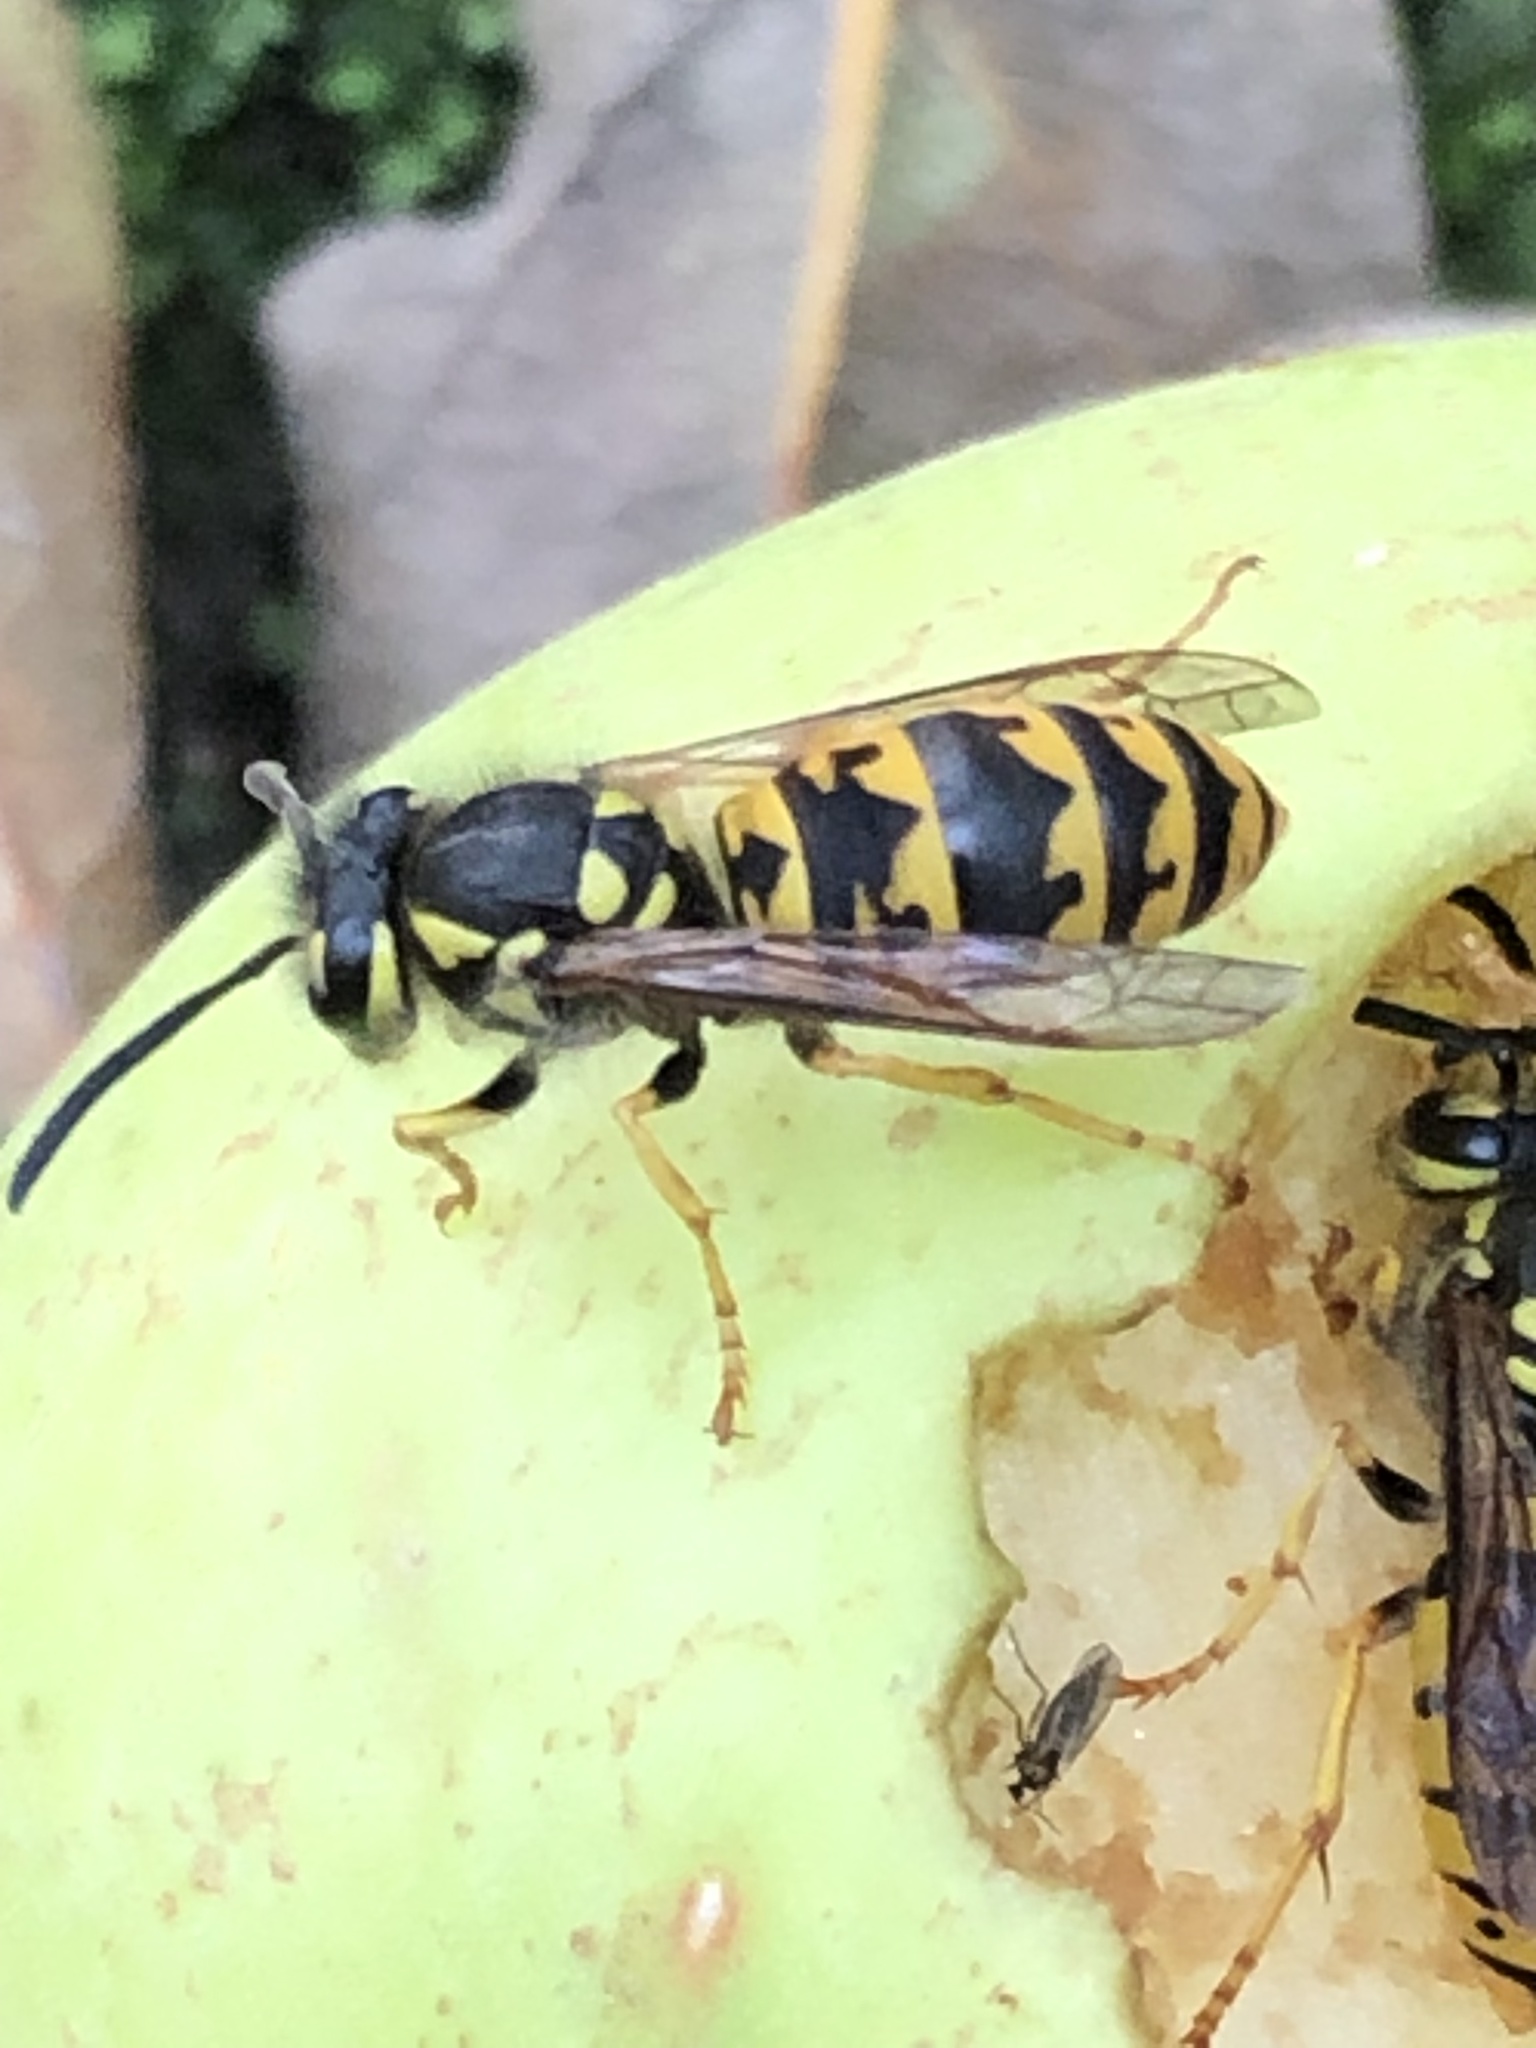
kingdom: Animalia
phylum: Arthropoda
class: Insecta
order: Hymenoptera
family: Vespidae
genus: Vespula
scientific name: Vespula germanica
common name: German wasp
